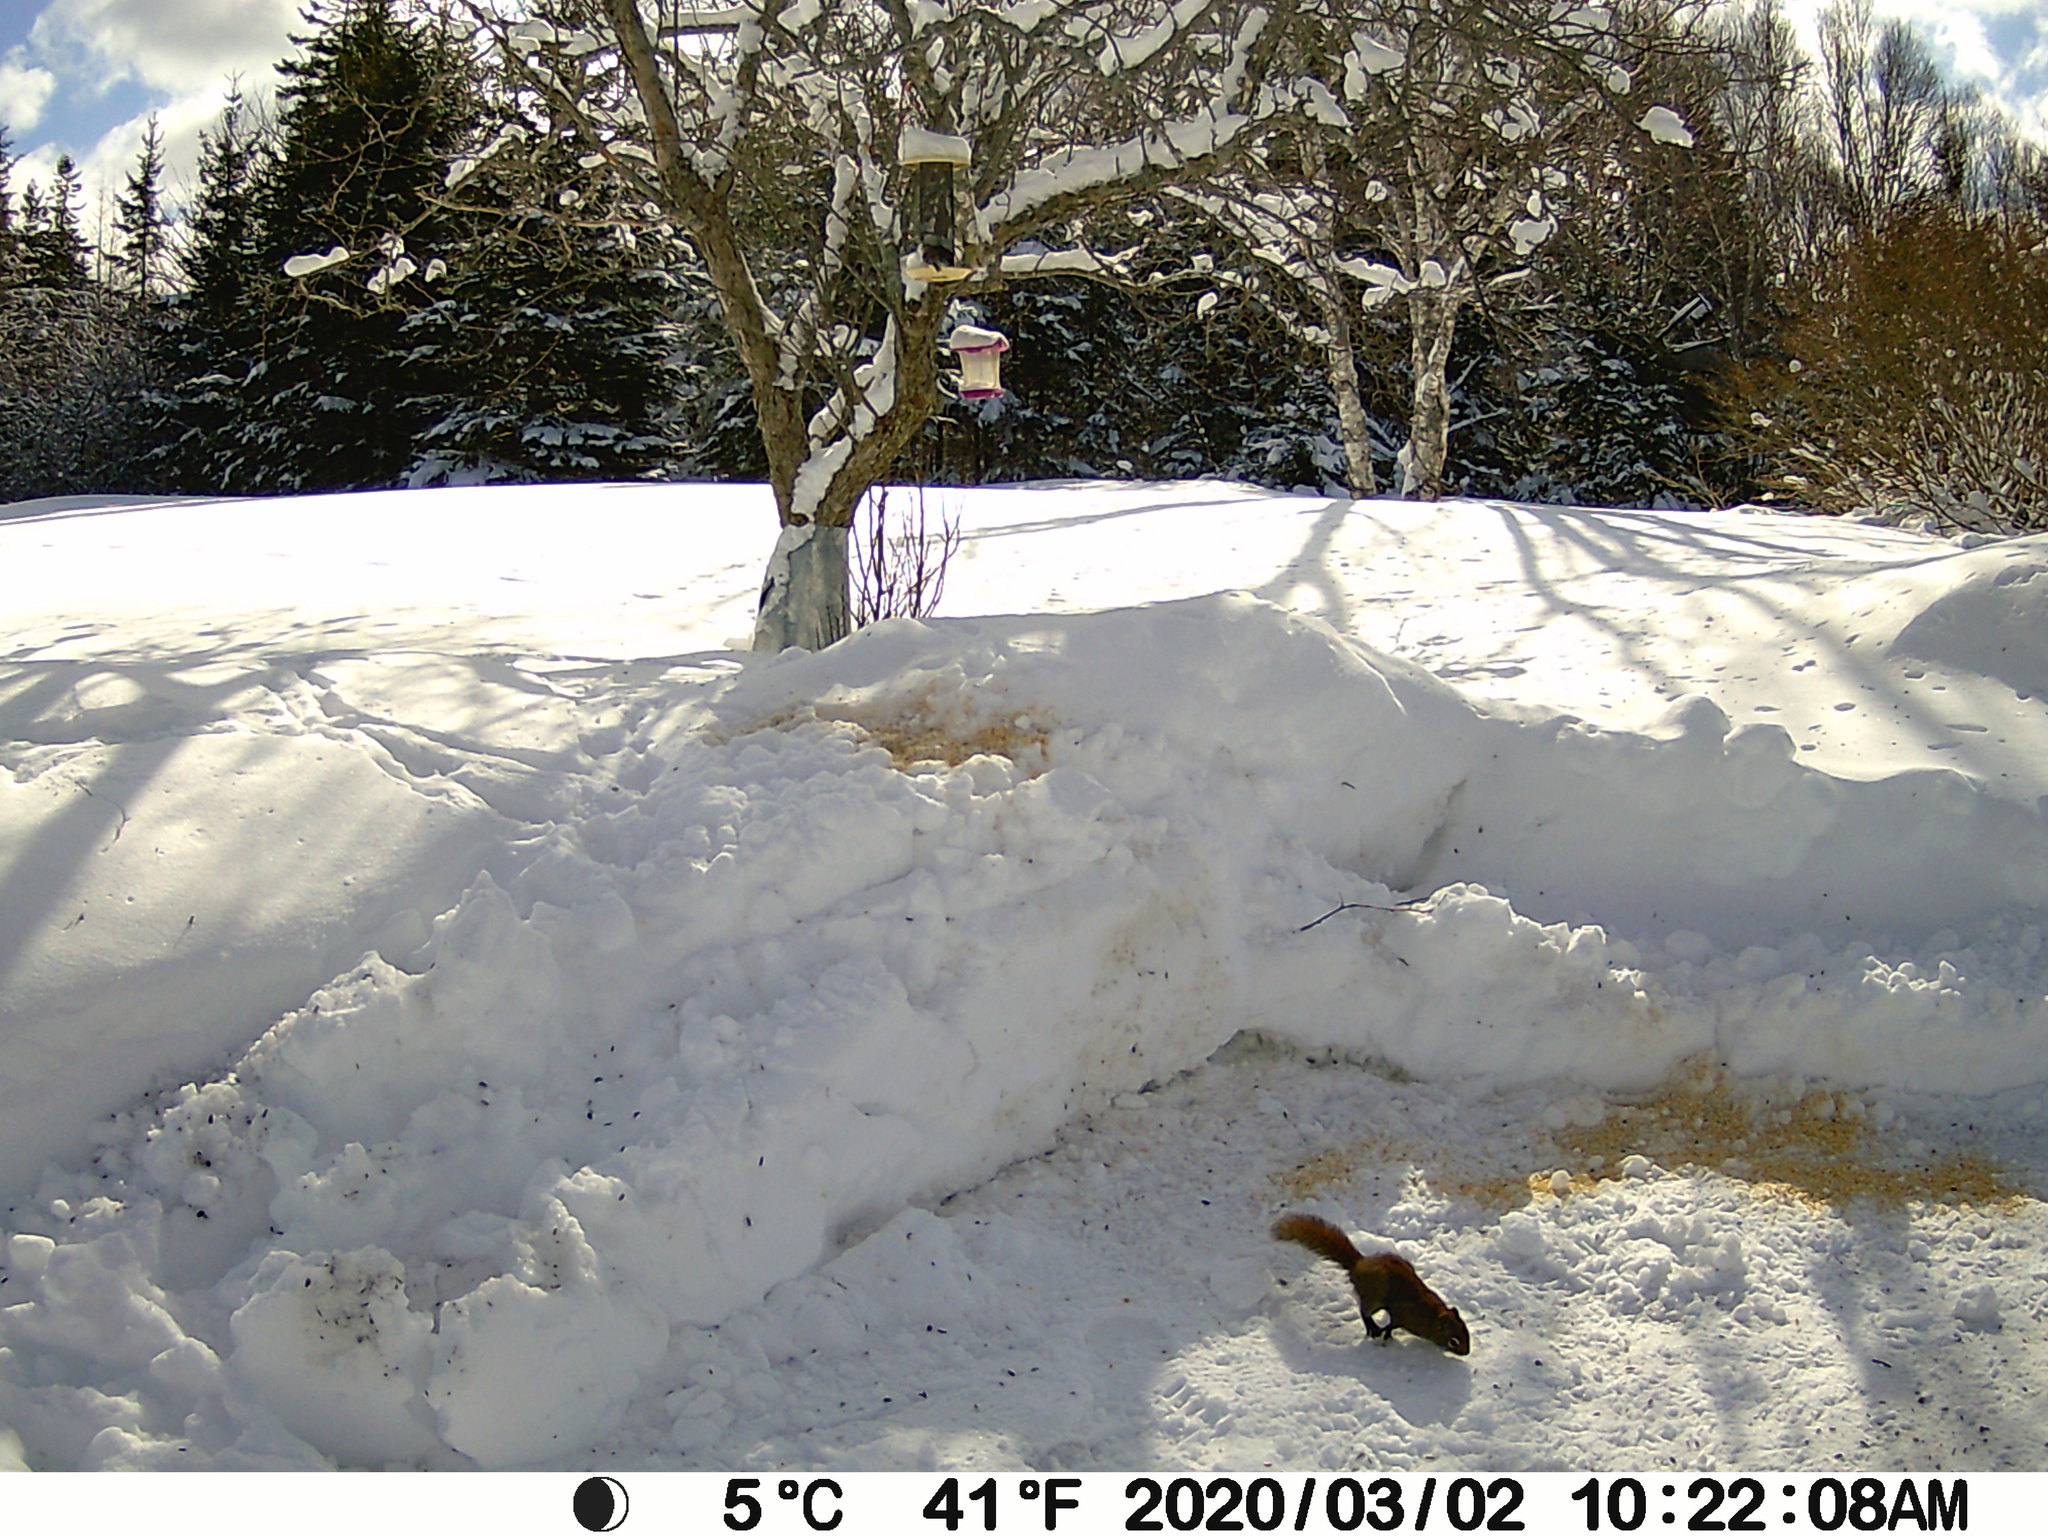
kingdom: Animalia
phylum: Chordata
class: Mammalia
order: Rodentia
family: Sciuridae
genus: Tamiasciurus
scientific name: Tamiasciurus hudsonicus
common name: Red squirrel
